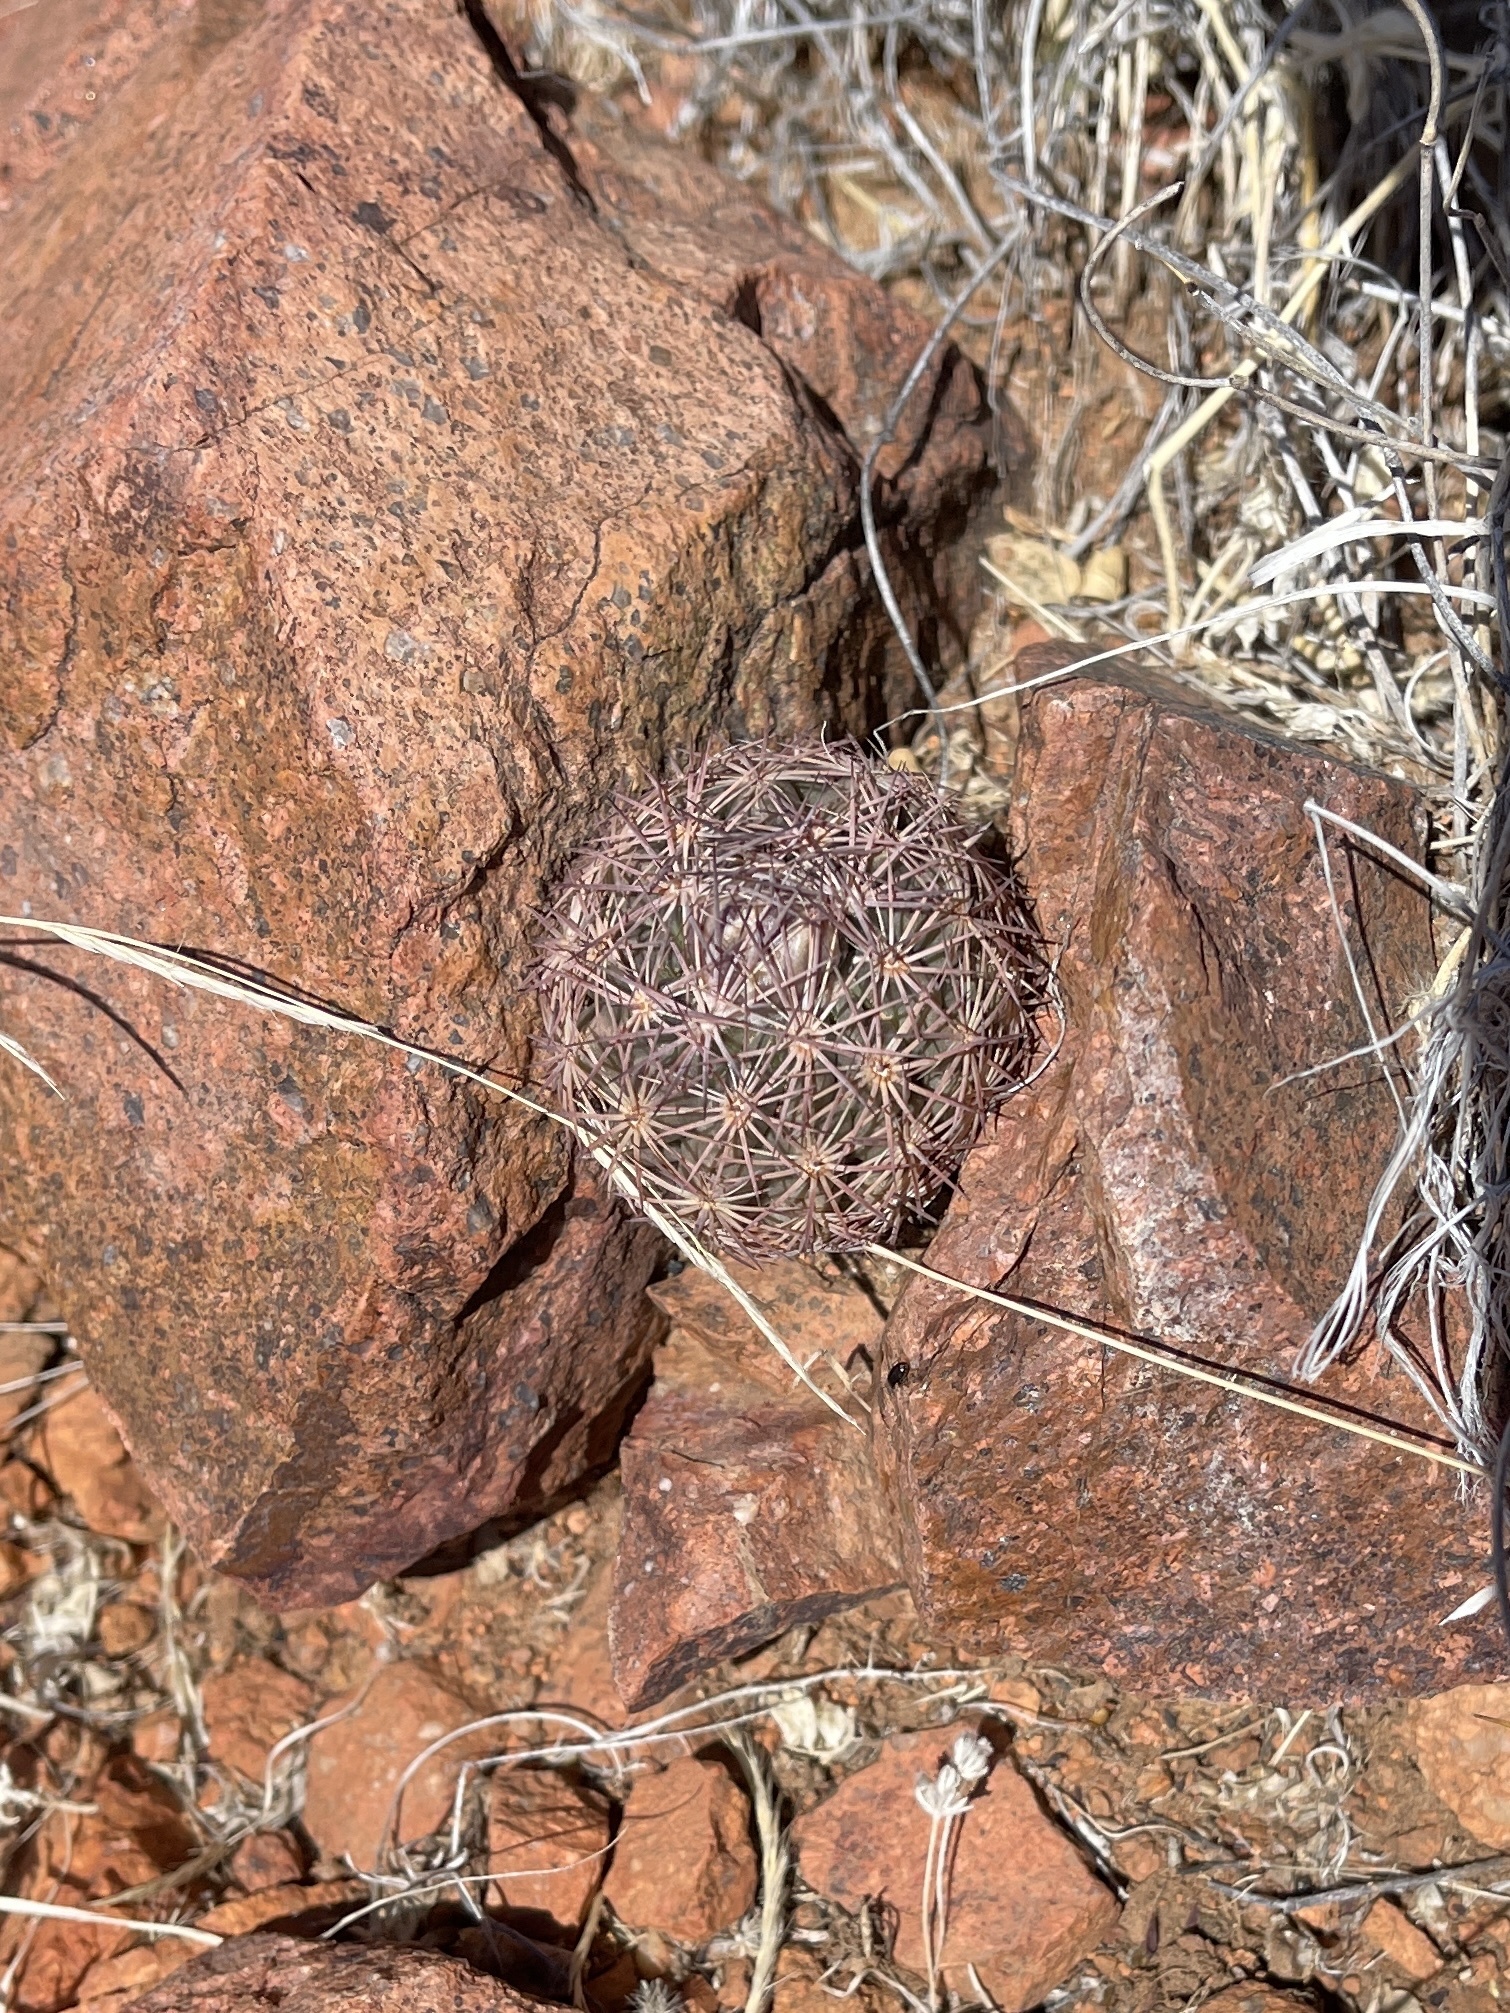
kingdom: Plantae
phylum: Tracheophyta
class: Magnoliopsida
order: Caryophyllales
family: Cactaceae
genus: Sclerocactus
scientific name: Sclerocactus intertextus
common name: White fish-hook cactus
